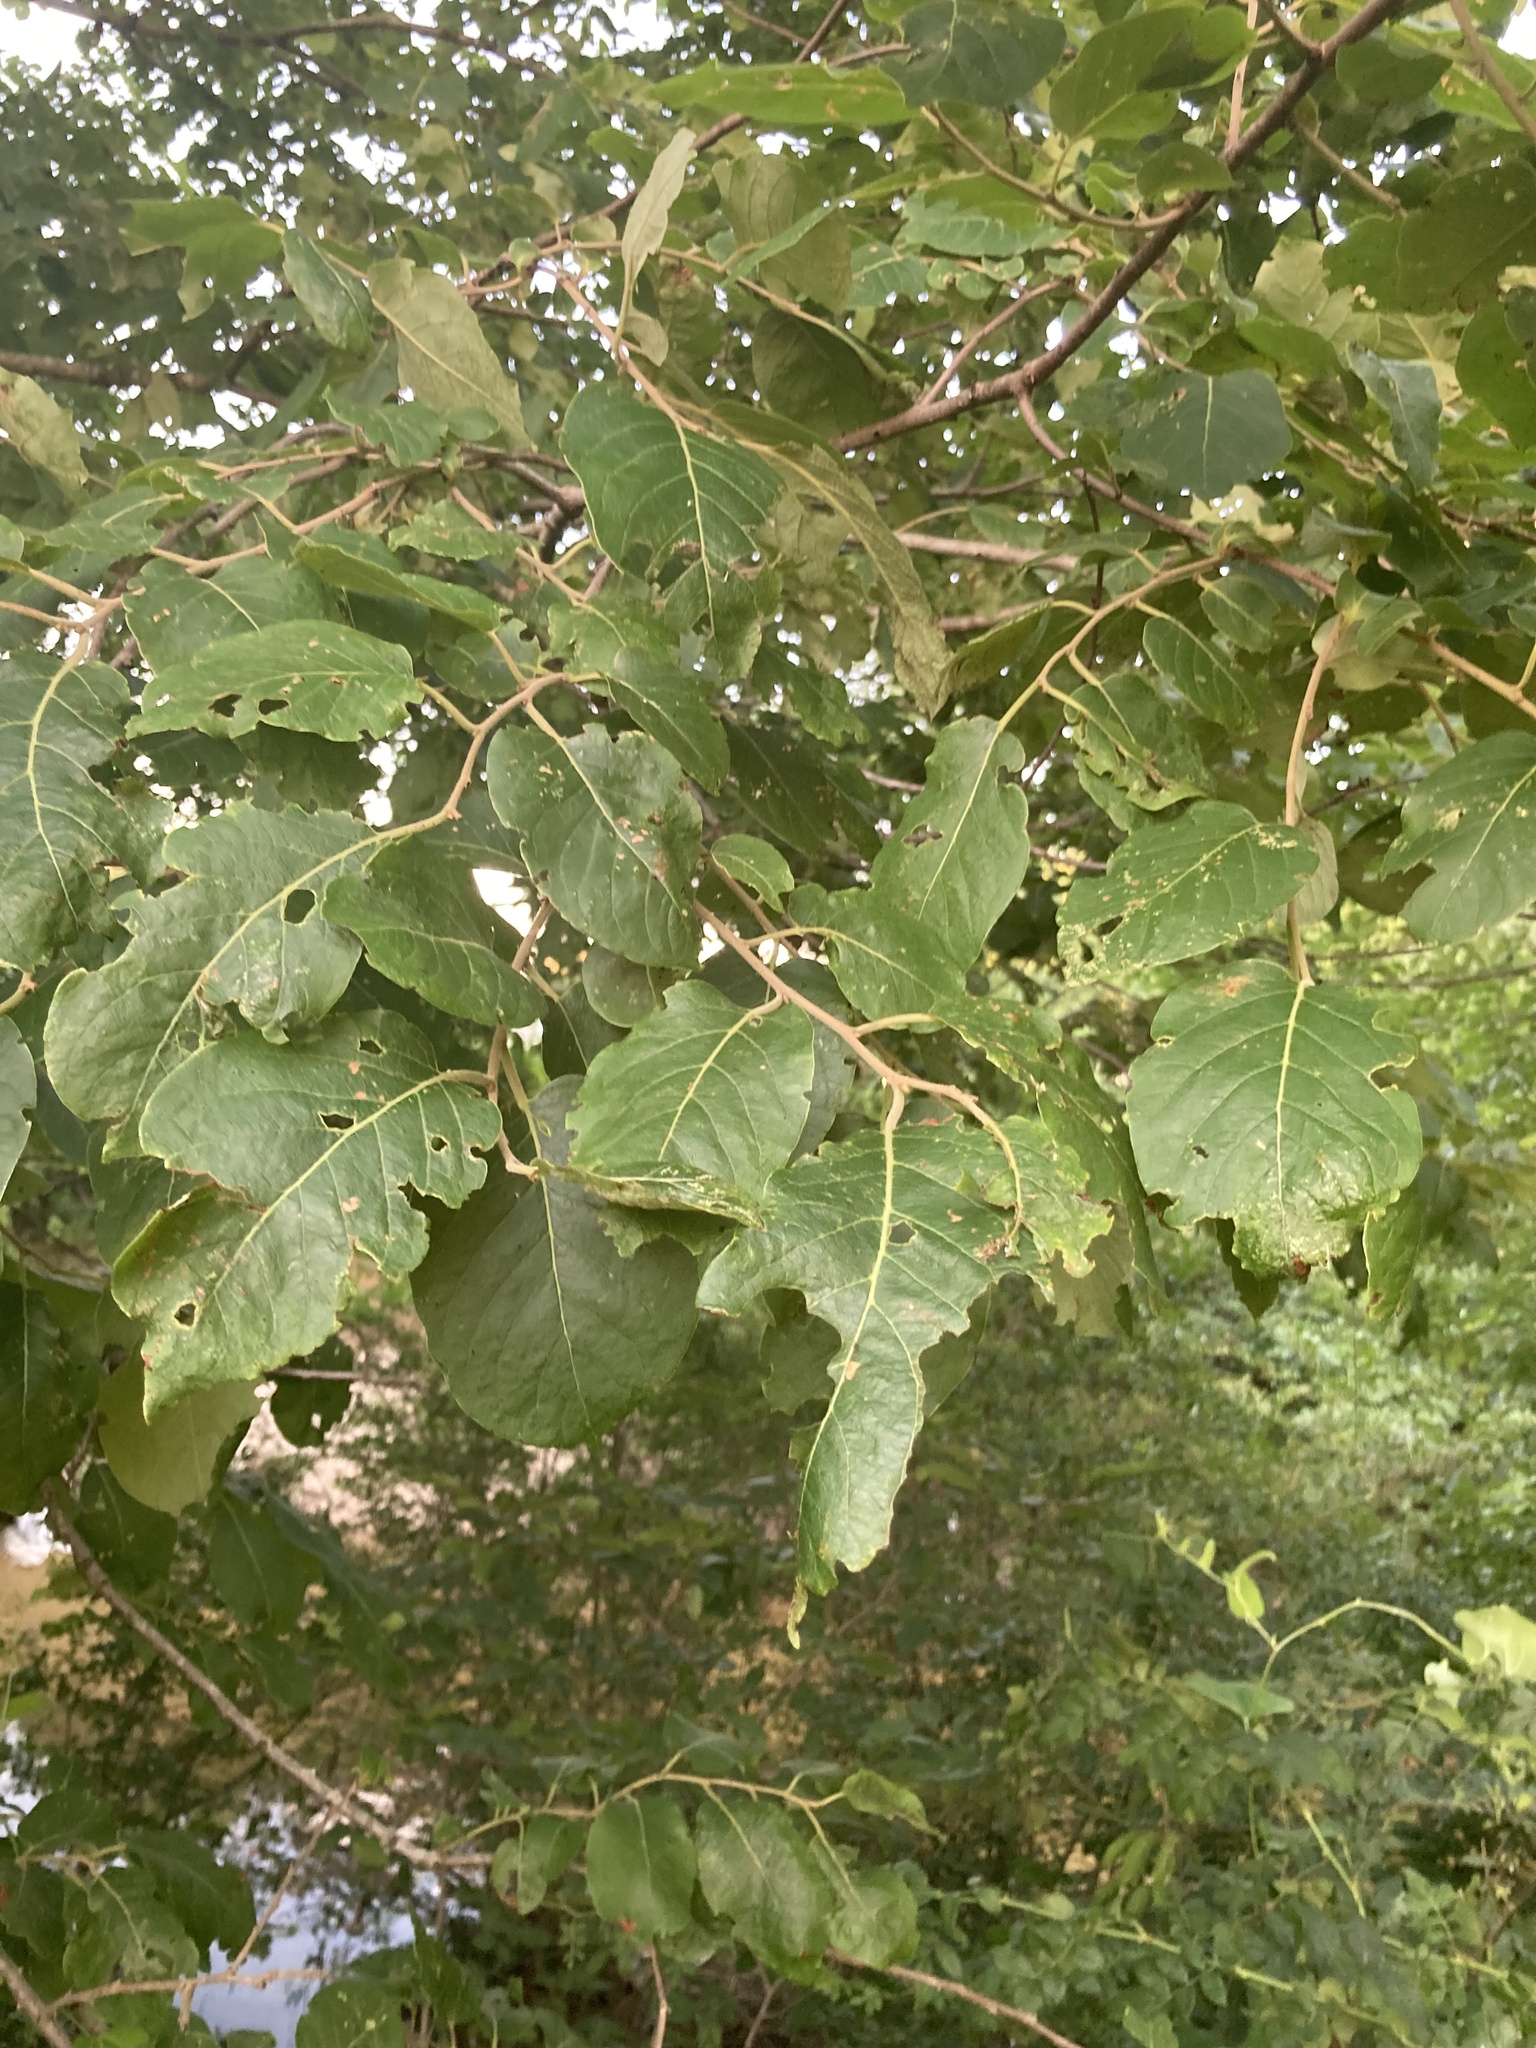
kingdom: Plantae
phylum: Tracheophyta
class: Magnoliopsida
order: Ericales
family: Ebenaceae
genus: Diospyros
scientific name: Diospyros virginiana
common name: Persimmon
